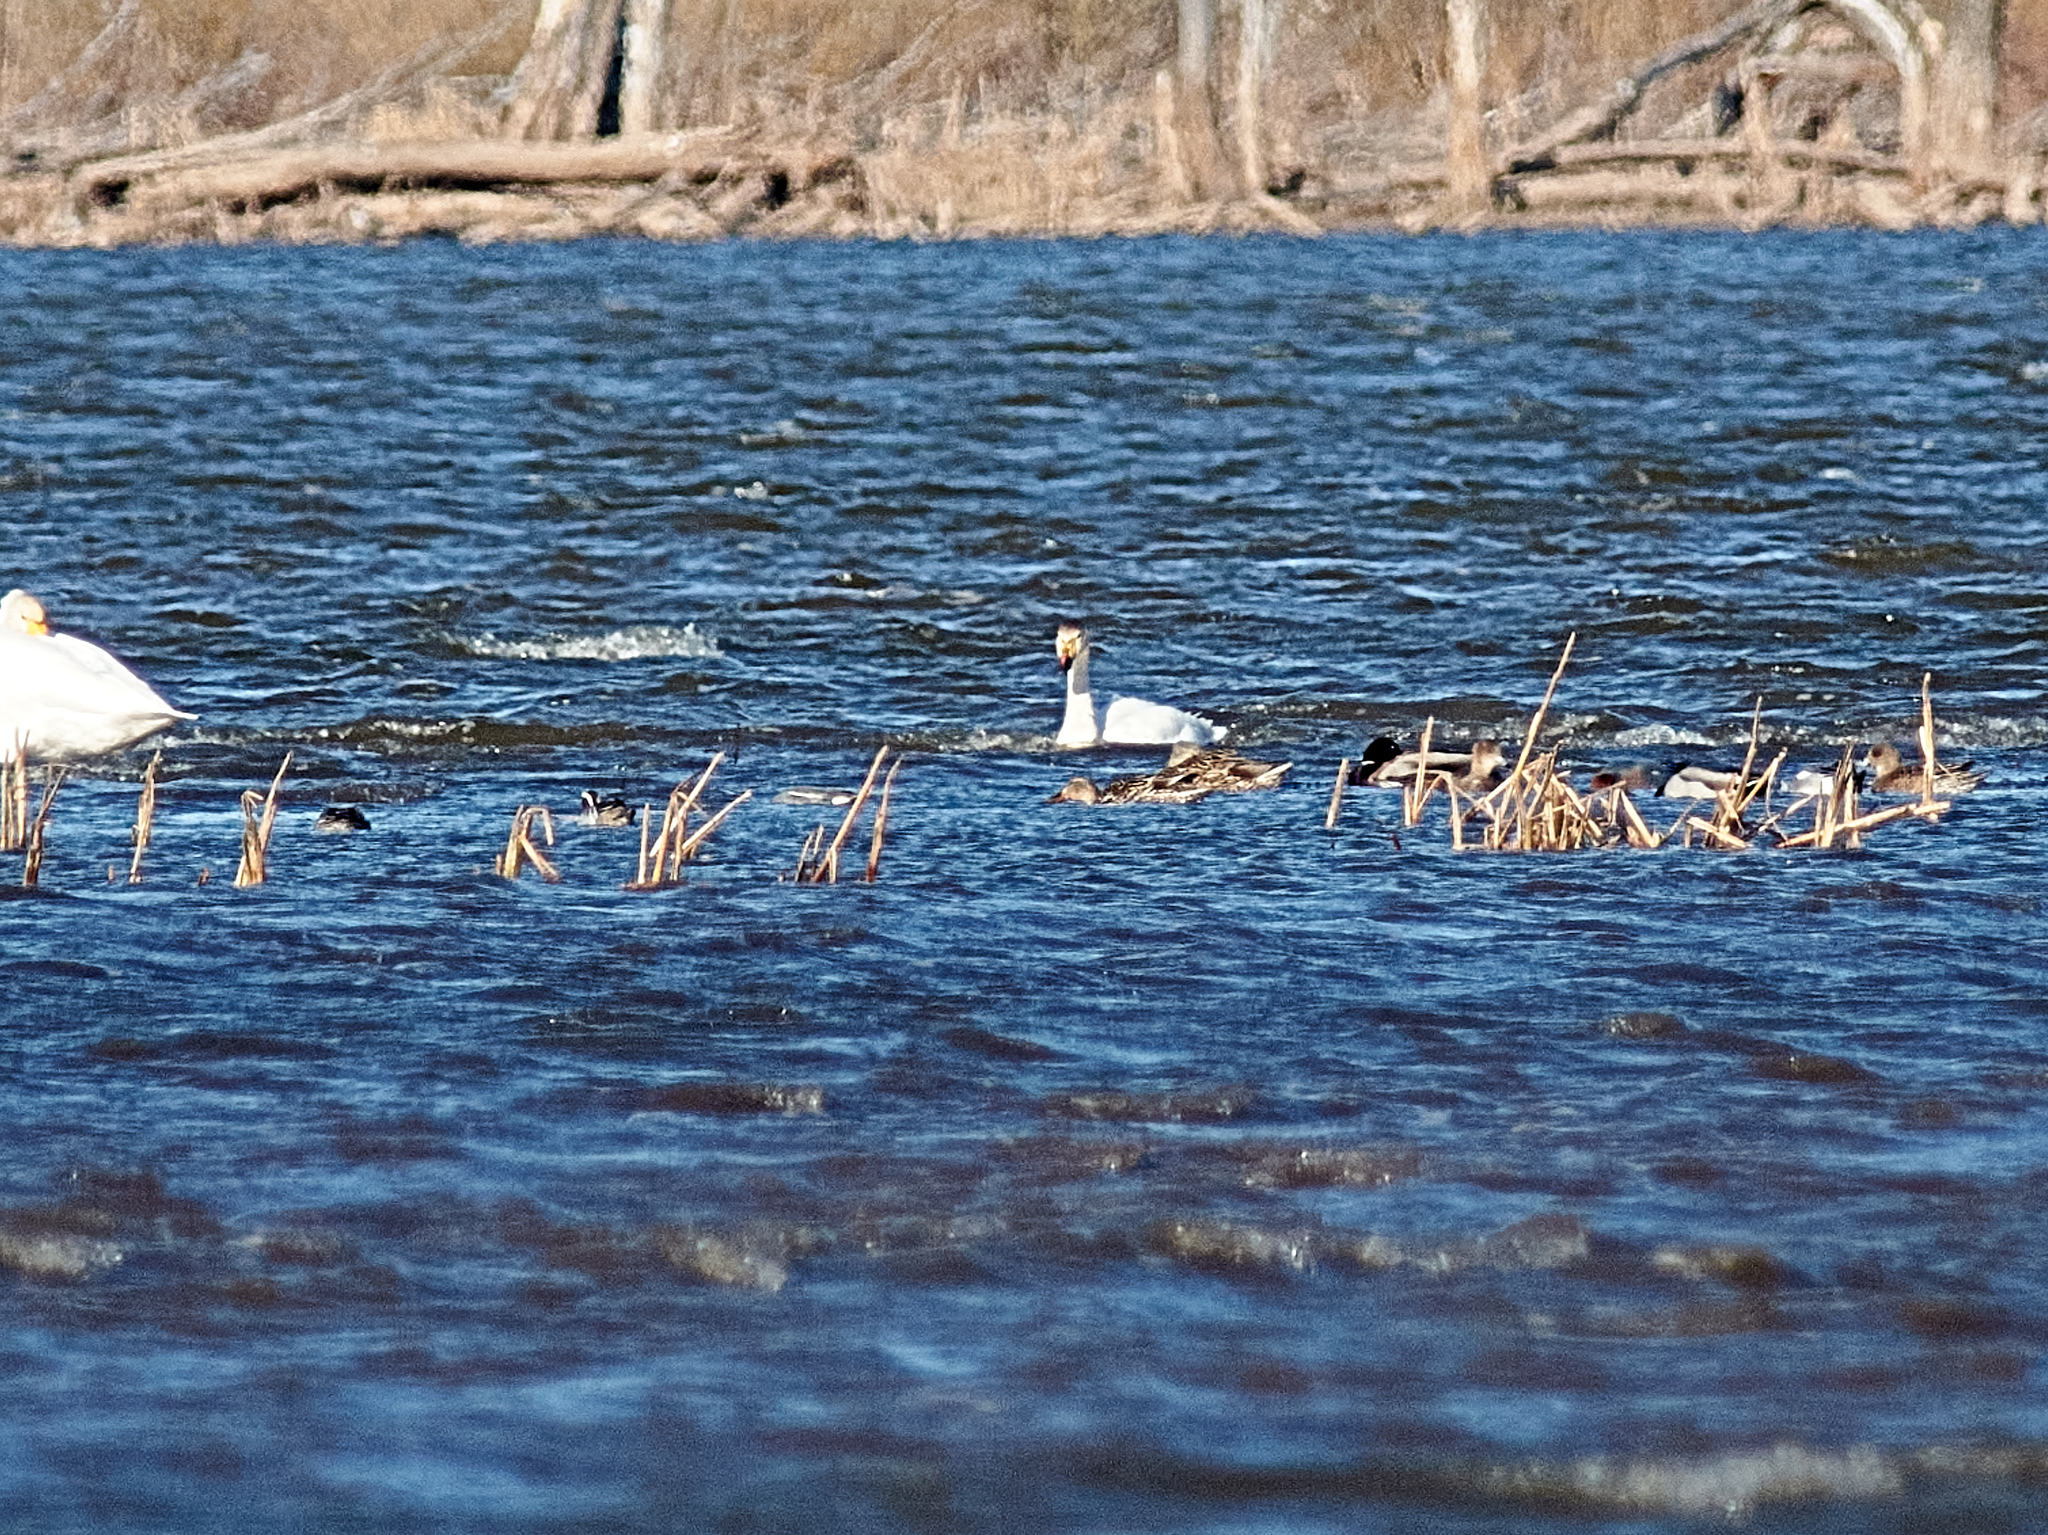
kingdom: Animalia
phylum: Chordata
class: Aves
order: Anseriformes
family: Anatidae
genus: Cygnus
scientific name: Cygnus columbianus
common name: Tundra swan
